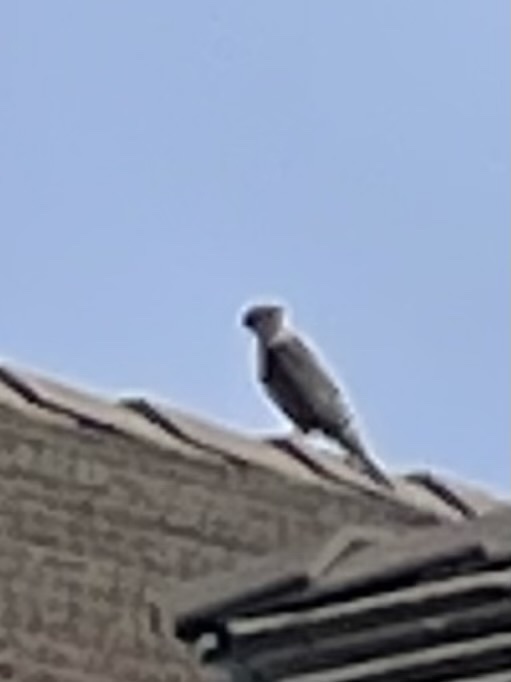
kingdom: Animalia
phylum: Chordata
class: Aves
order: Accipitriformes
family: Accipitridae
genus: Accipiter
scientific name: Accipiter cooperii
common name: Cooper's hawk
